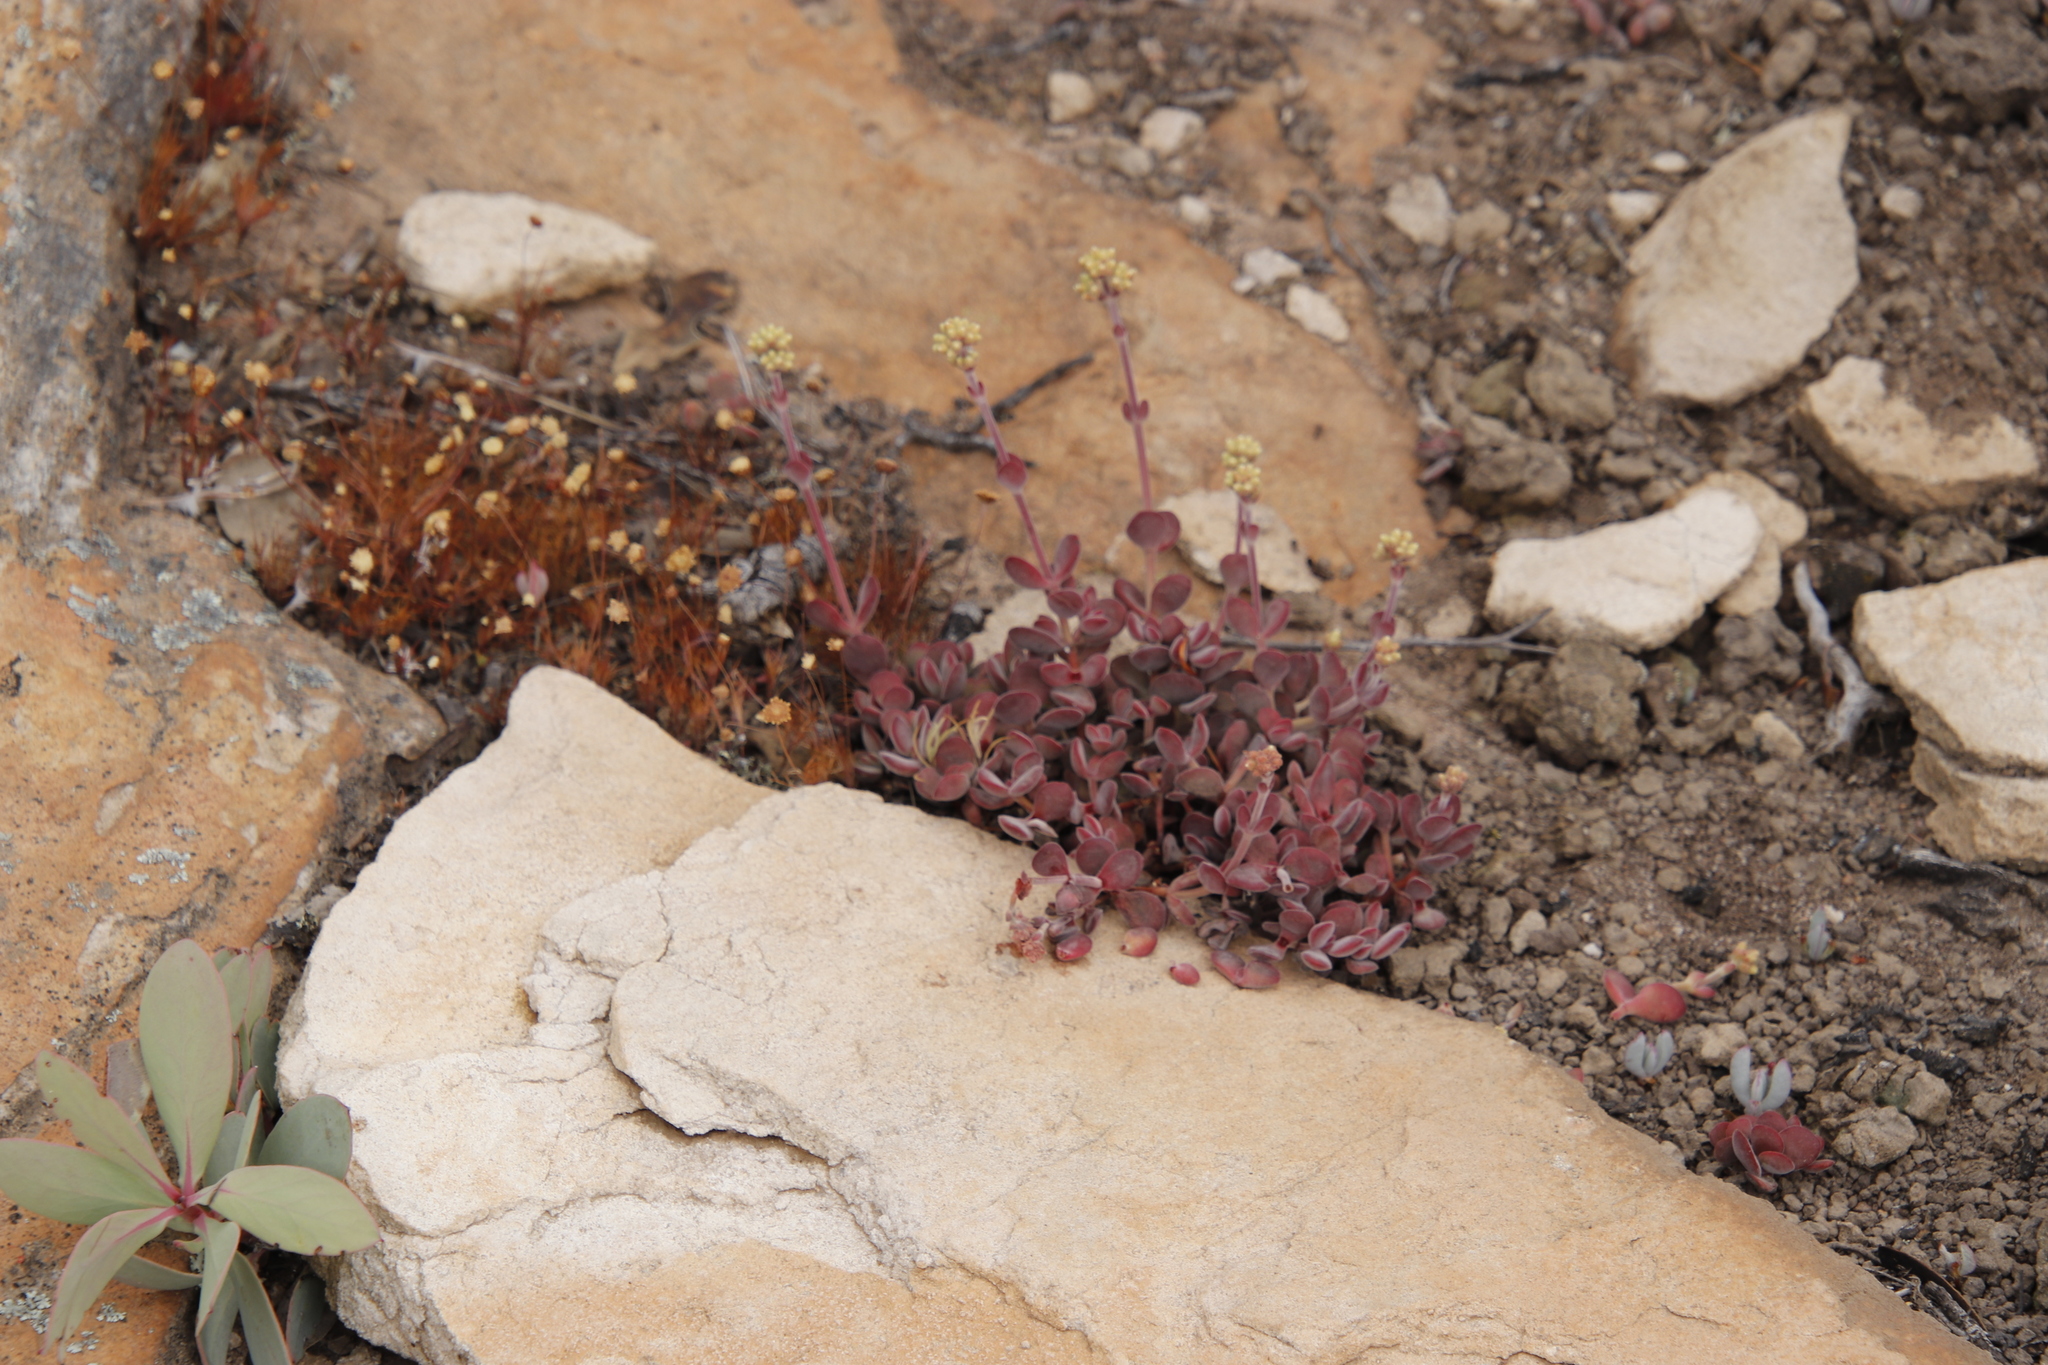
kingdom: Plantae
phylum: Tracheophyta
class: Magnoliopsida
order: Saxifragales
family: Crassulaceae
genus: Crassula
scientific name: Crassula atropurpurea
